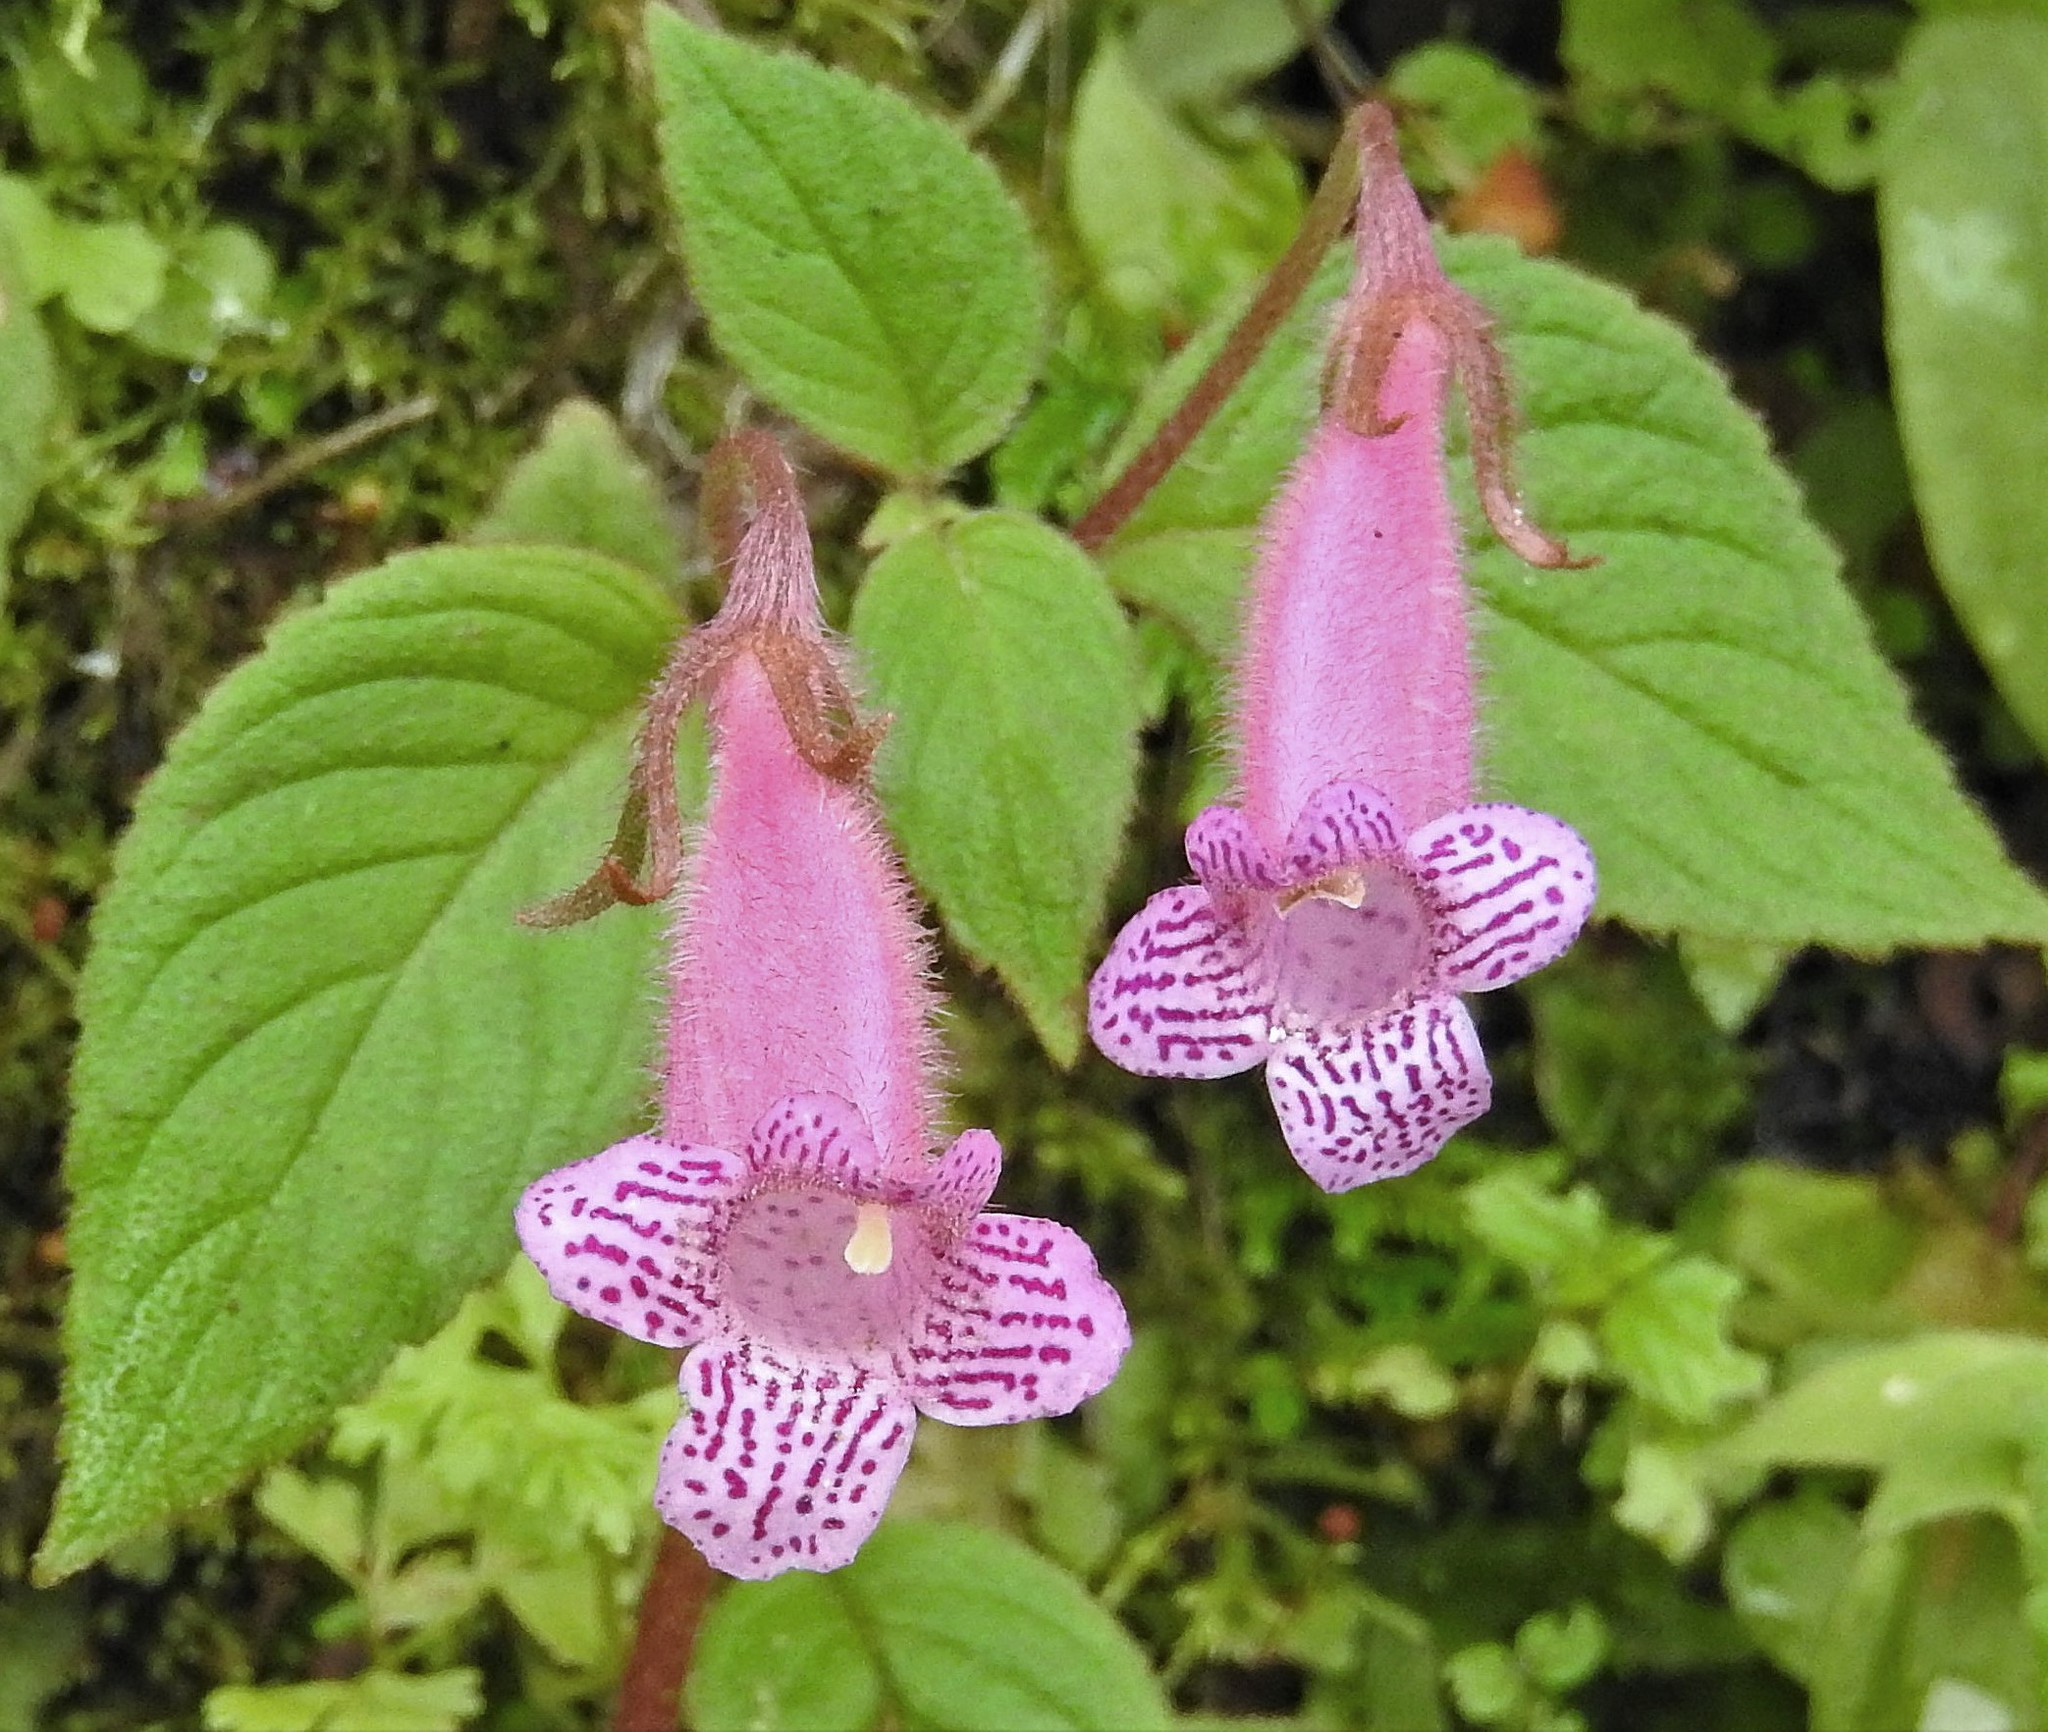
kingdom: Plantae
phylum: Tracheophyta
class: Magnoliopsida
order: Lamiales
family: Gesneriaceae
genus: Seemannia
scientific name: Seemannia gymnostoma
